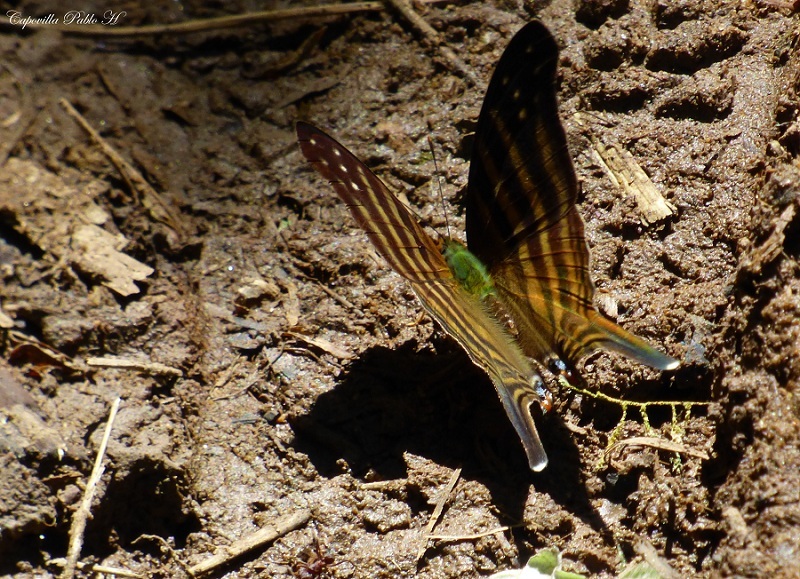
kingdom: Animalia
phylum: Arthropoda
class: Insecta
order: Lepidoptera
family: Nymphalidae
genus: Marpesia
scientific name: Marpesia chiron
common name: Many-banded daggerwing
